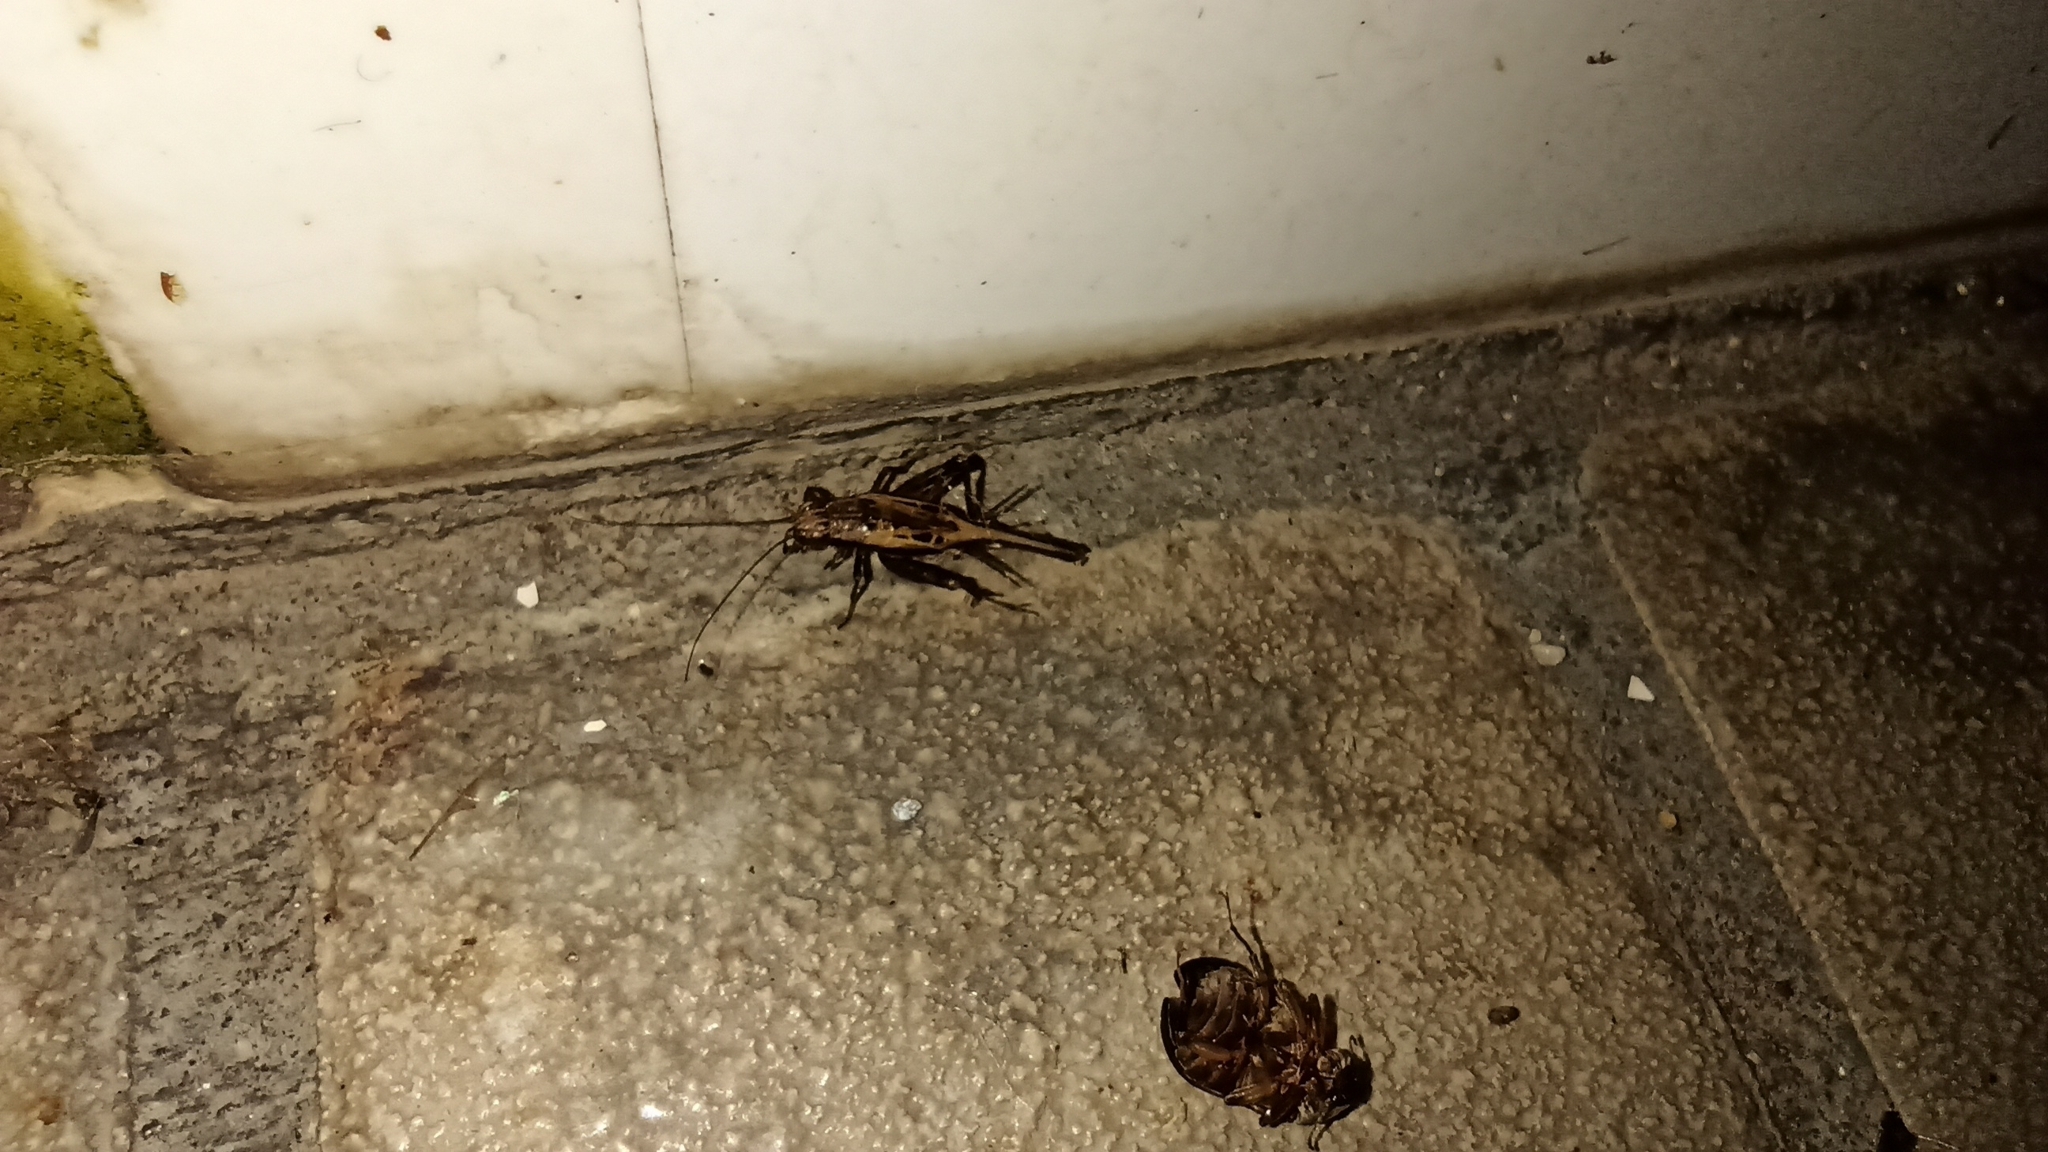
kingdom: Animalia
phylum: Arthropoda
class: Insecta
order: Orthoptera
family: Trigonidiidae
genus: Polionemobius
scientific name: Polionemobius taprobanense
